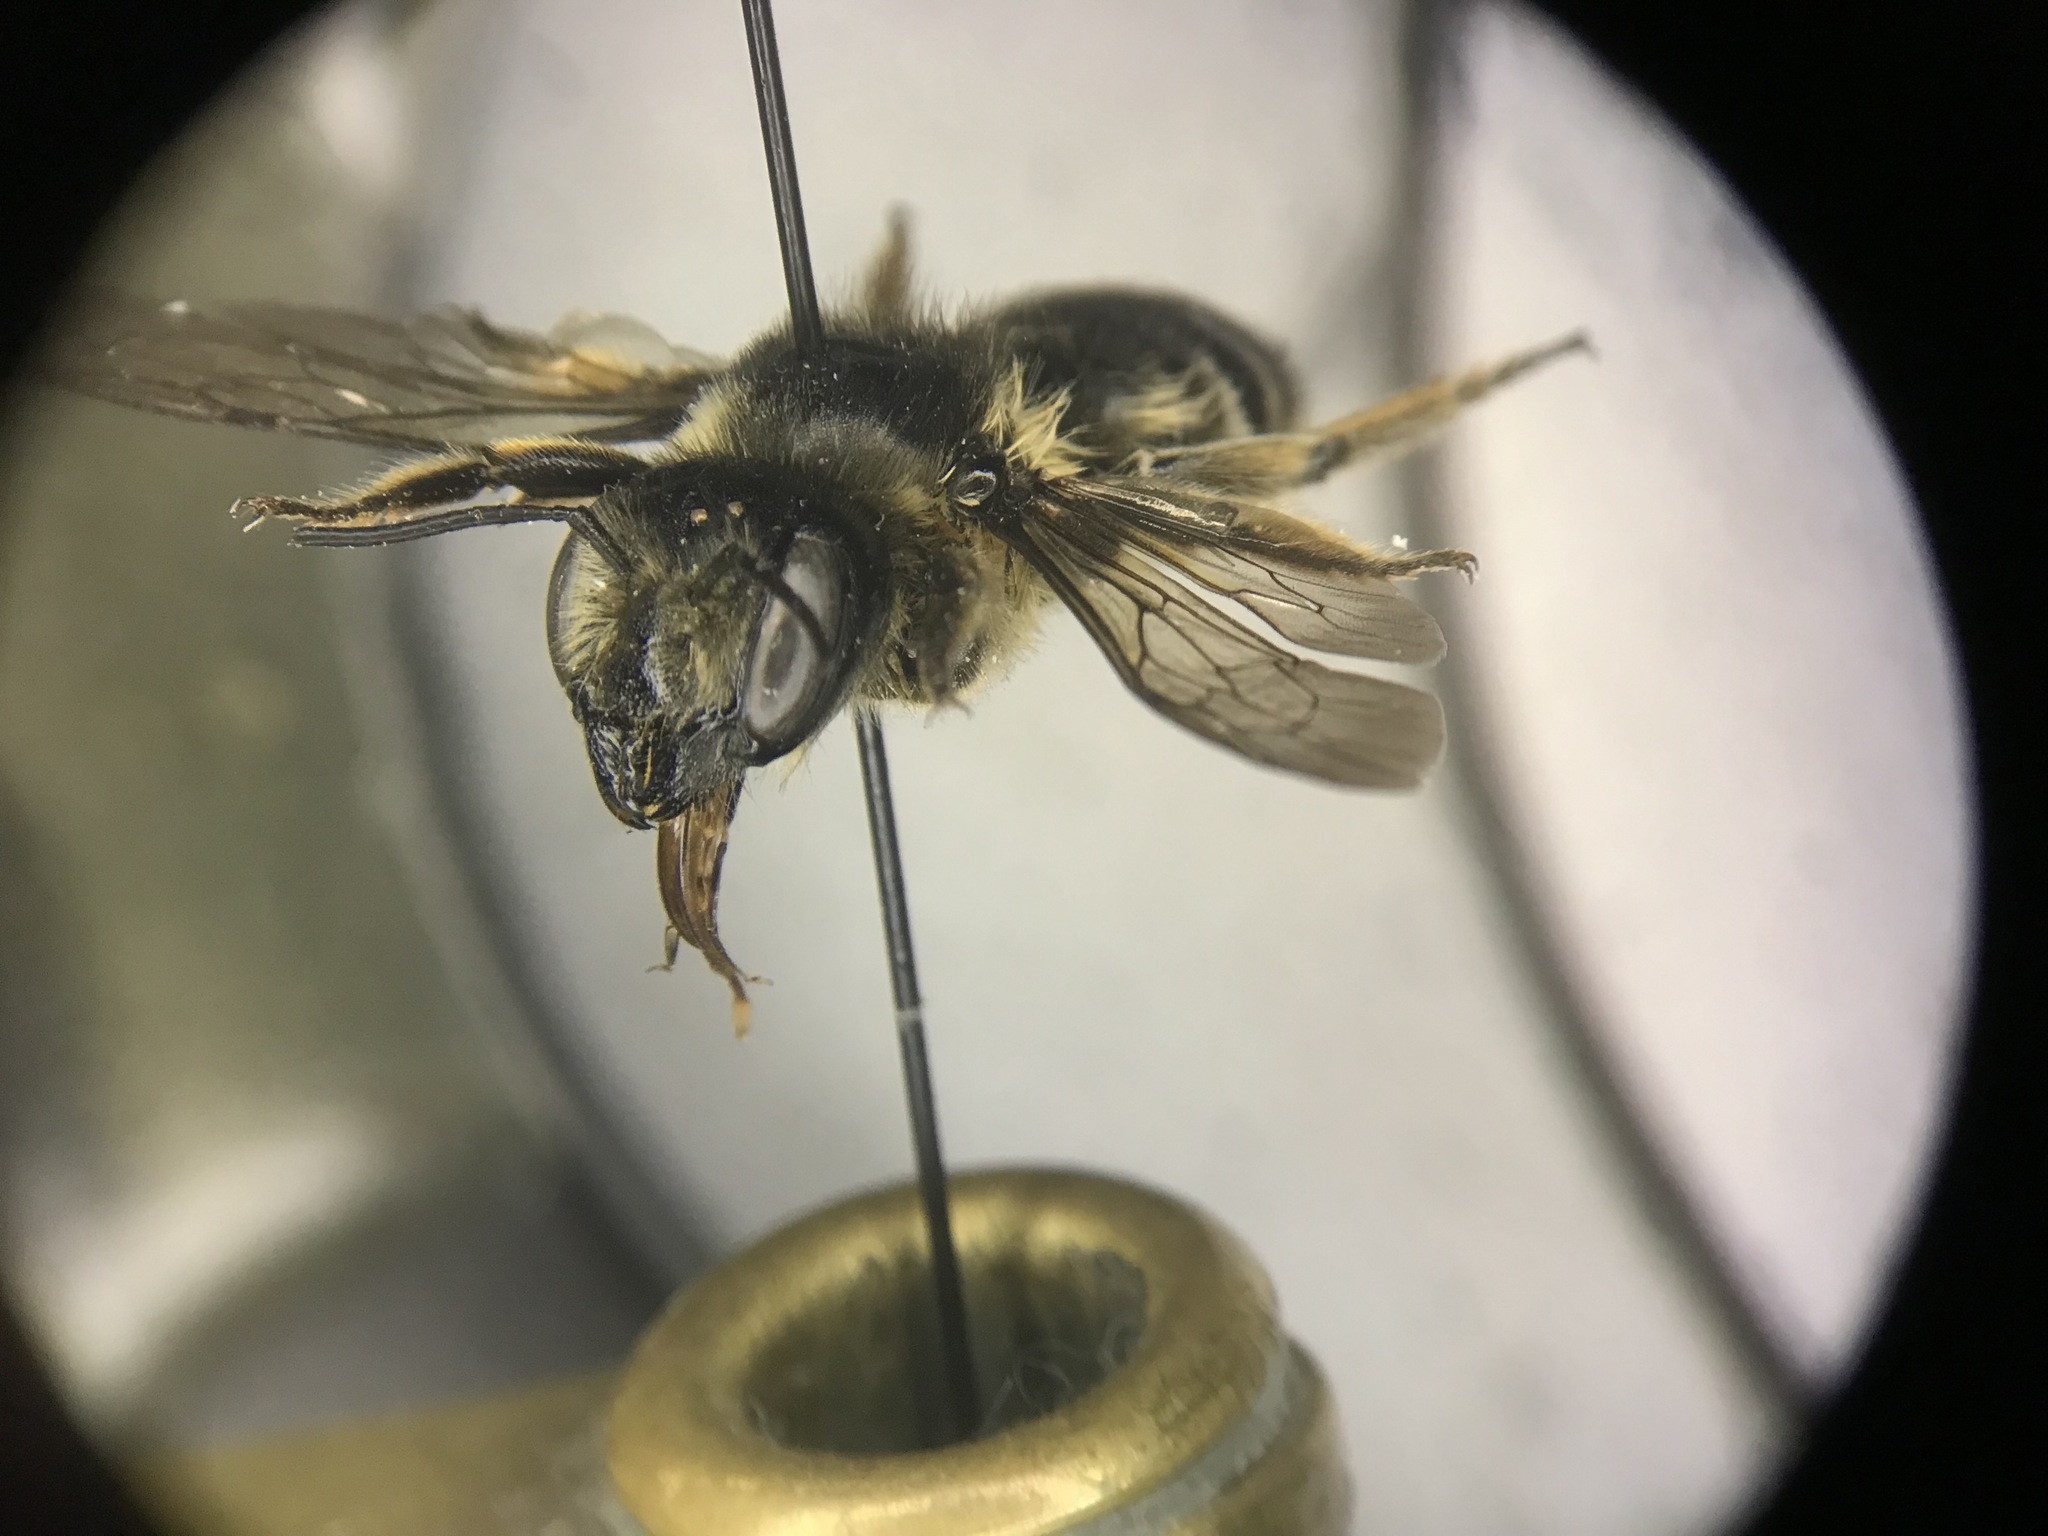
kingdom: Animalia
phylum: Arthropoda
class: Insecta
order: Hymenoptera
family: Megachilidae
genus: Megachile
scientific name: Megachile inermis
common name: Unarmed leafcutter bee
